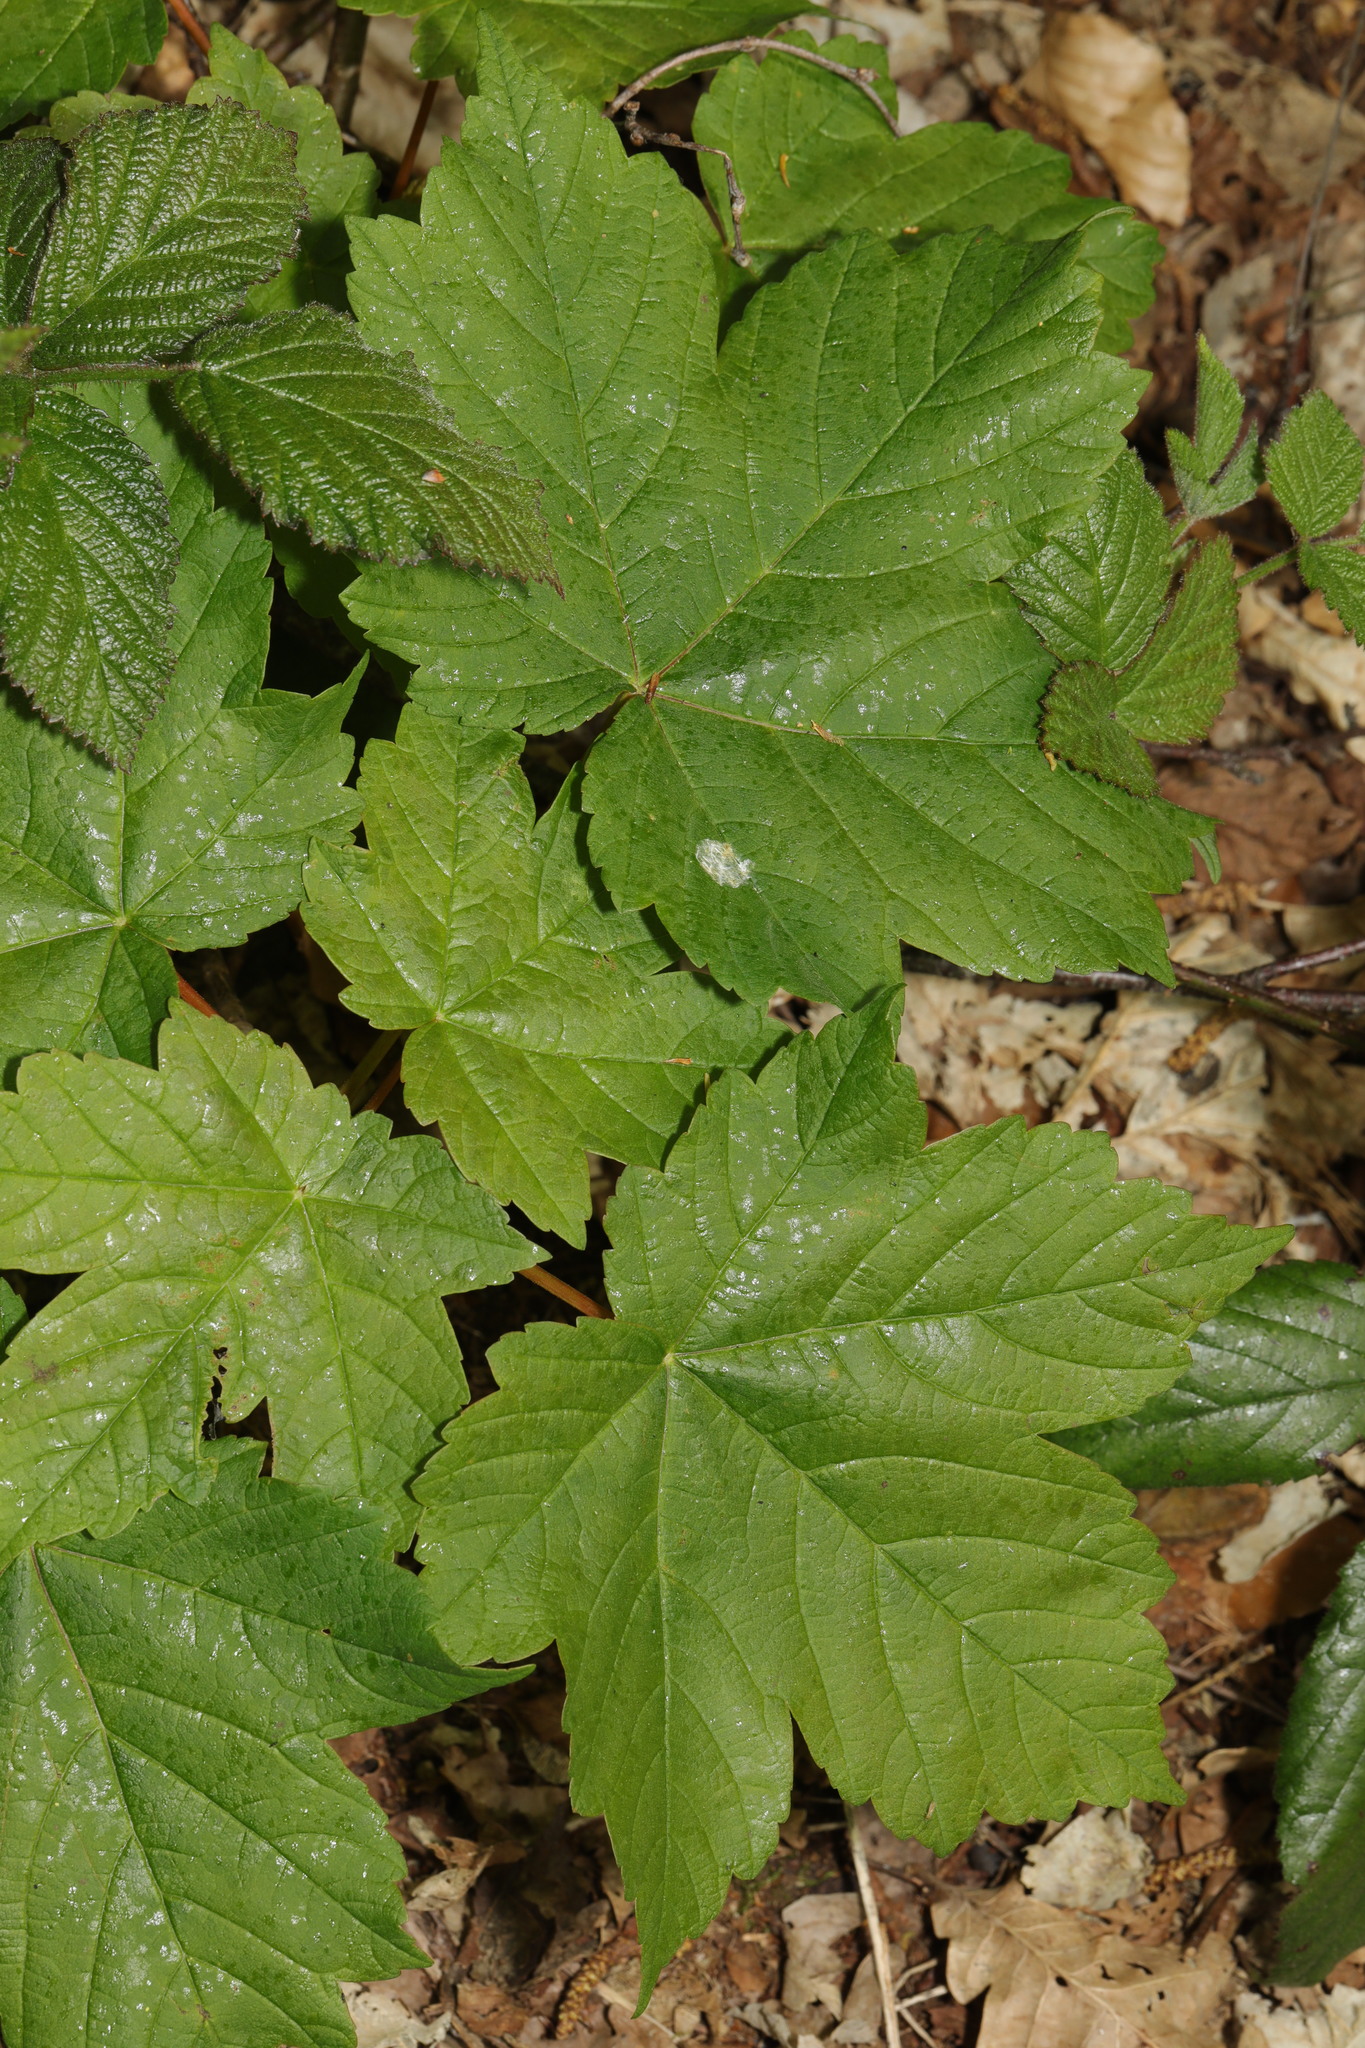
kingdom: Plantae
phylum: Tracheophyta
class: Magnoliopsida
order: Sapindales
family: Sapindaceae
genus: Acer
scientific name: Acer pseudoplatanus
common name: Sycamore
